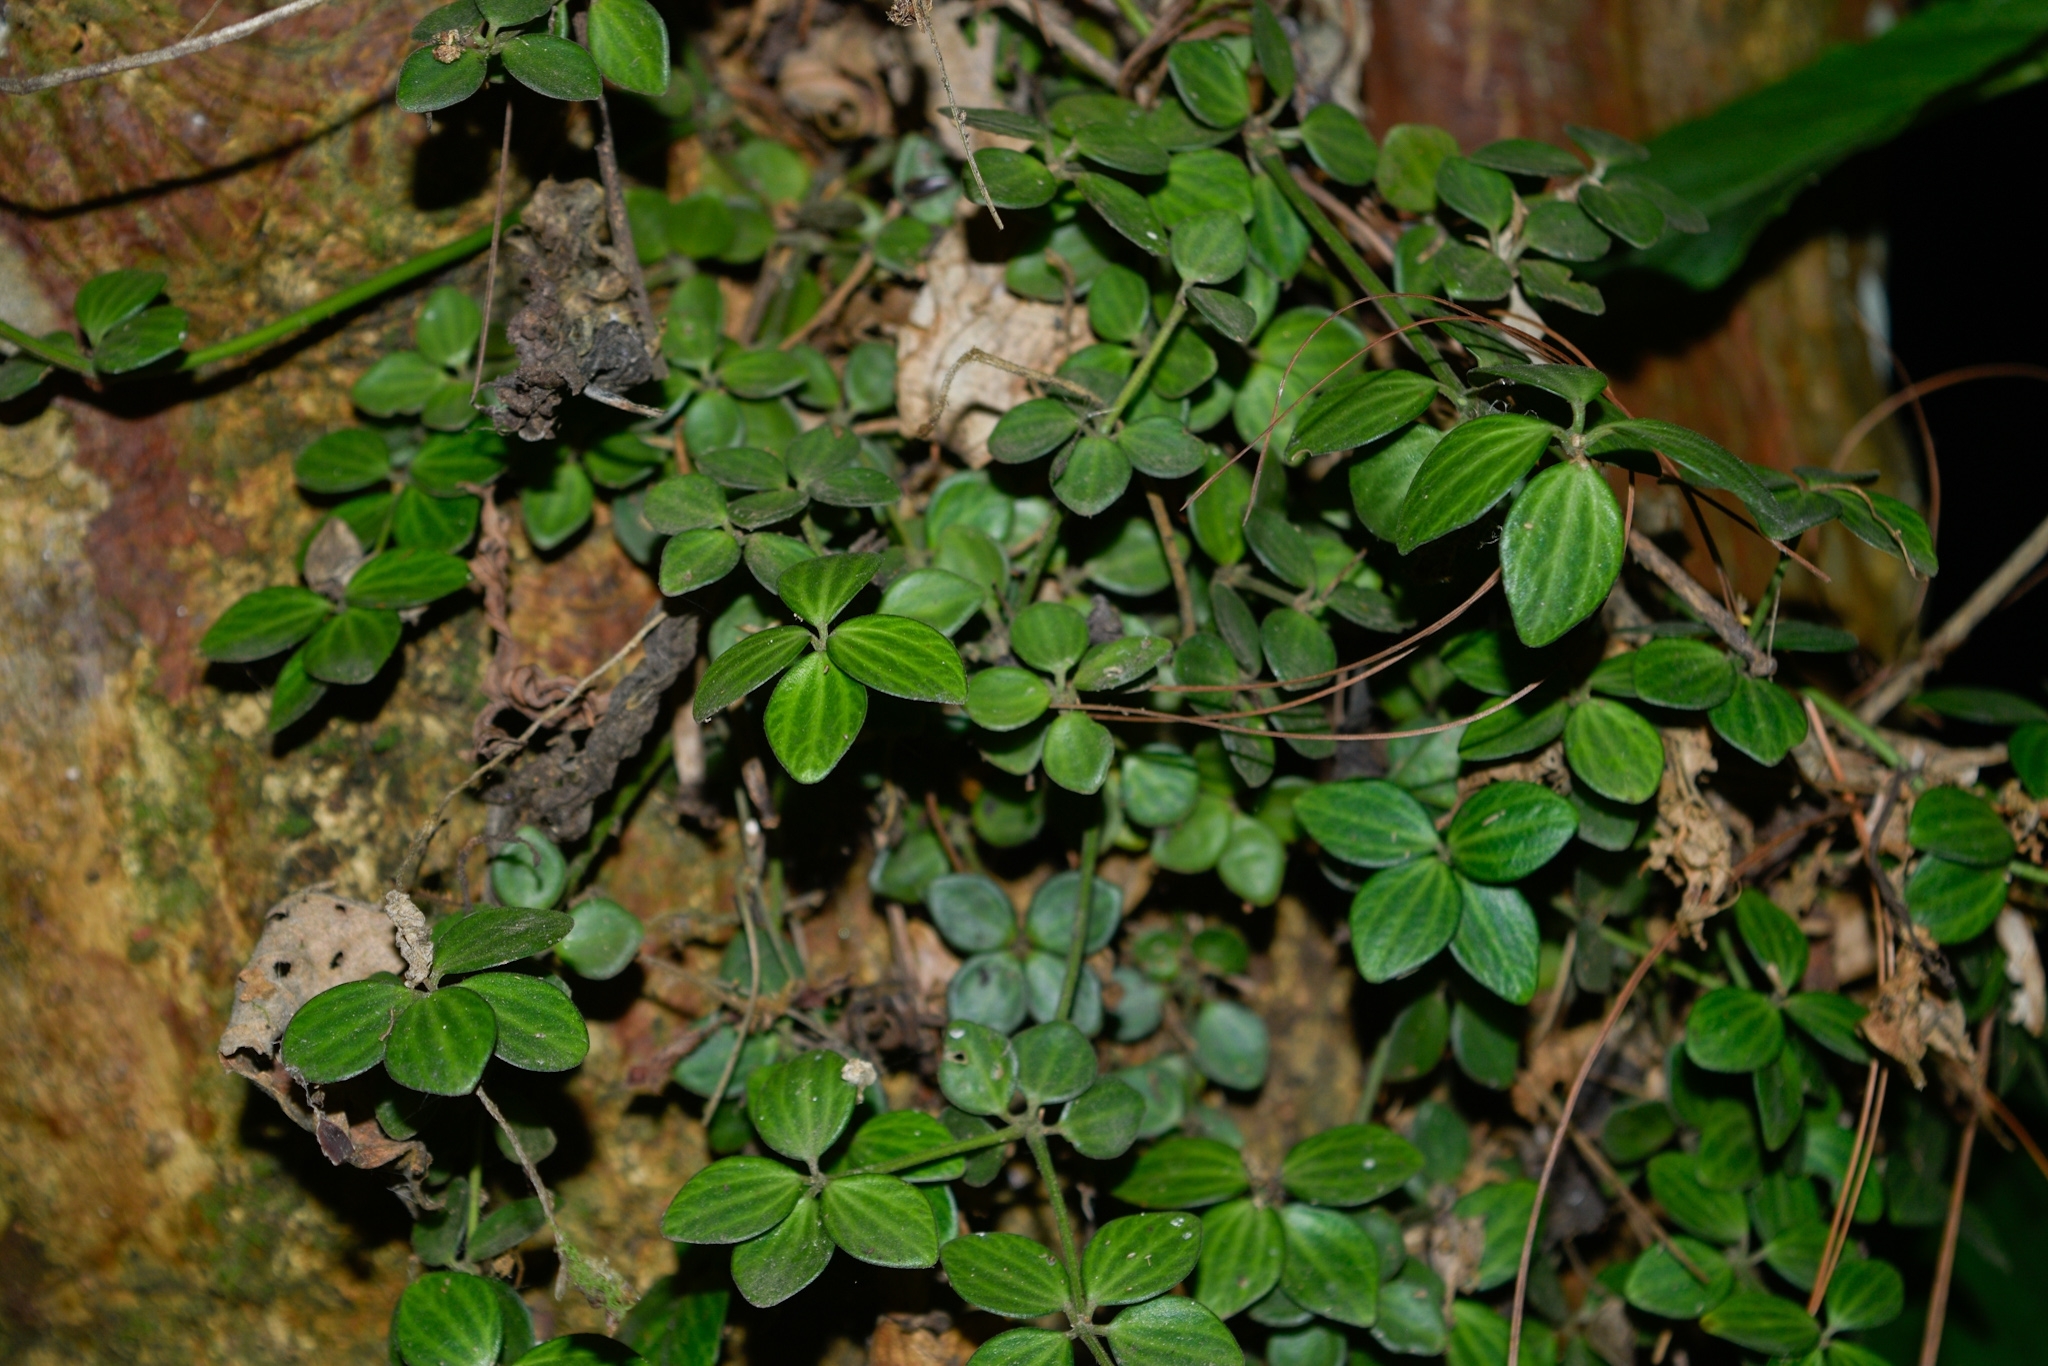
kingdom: Plantae
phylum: Tracheophyta
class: Magnoliopsida
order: Piperales
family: Piperaceae
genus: Peperomia
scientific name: Peperomia tetraphylla
